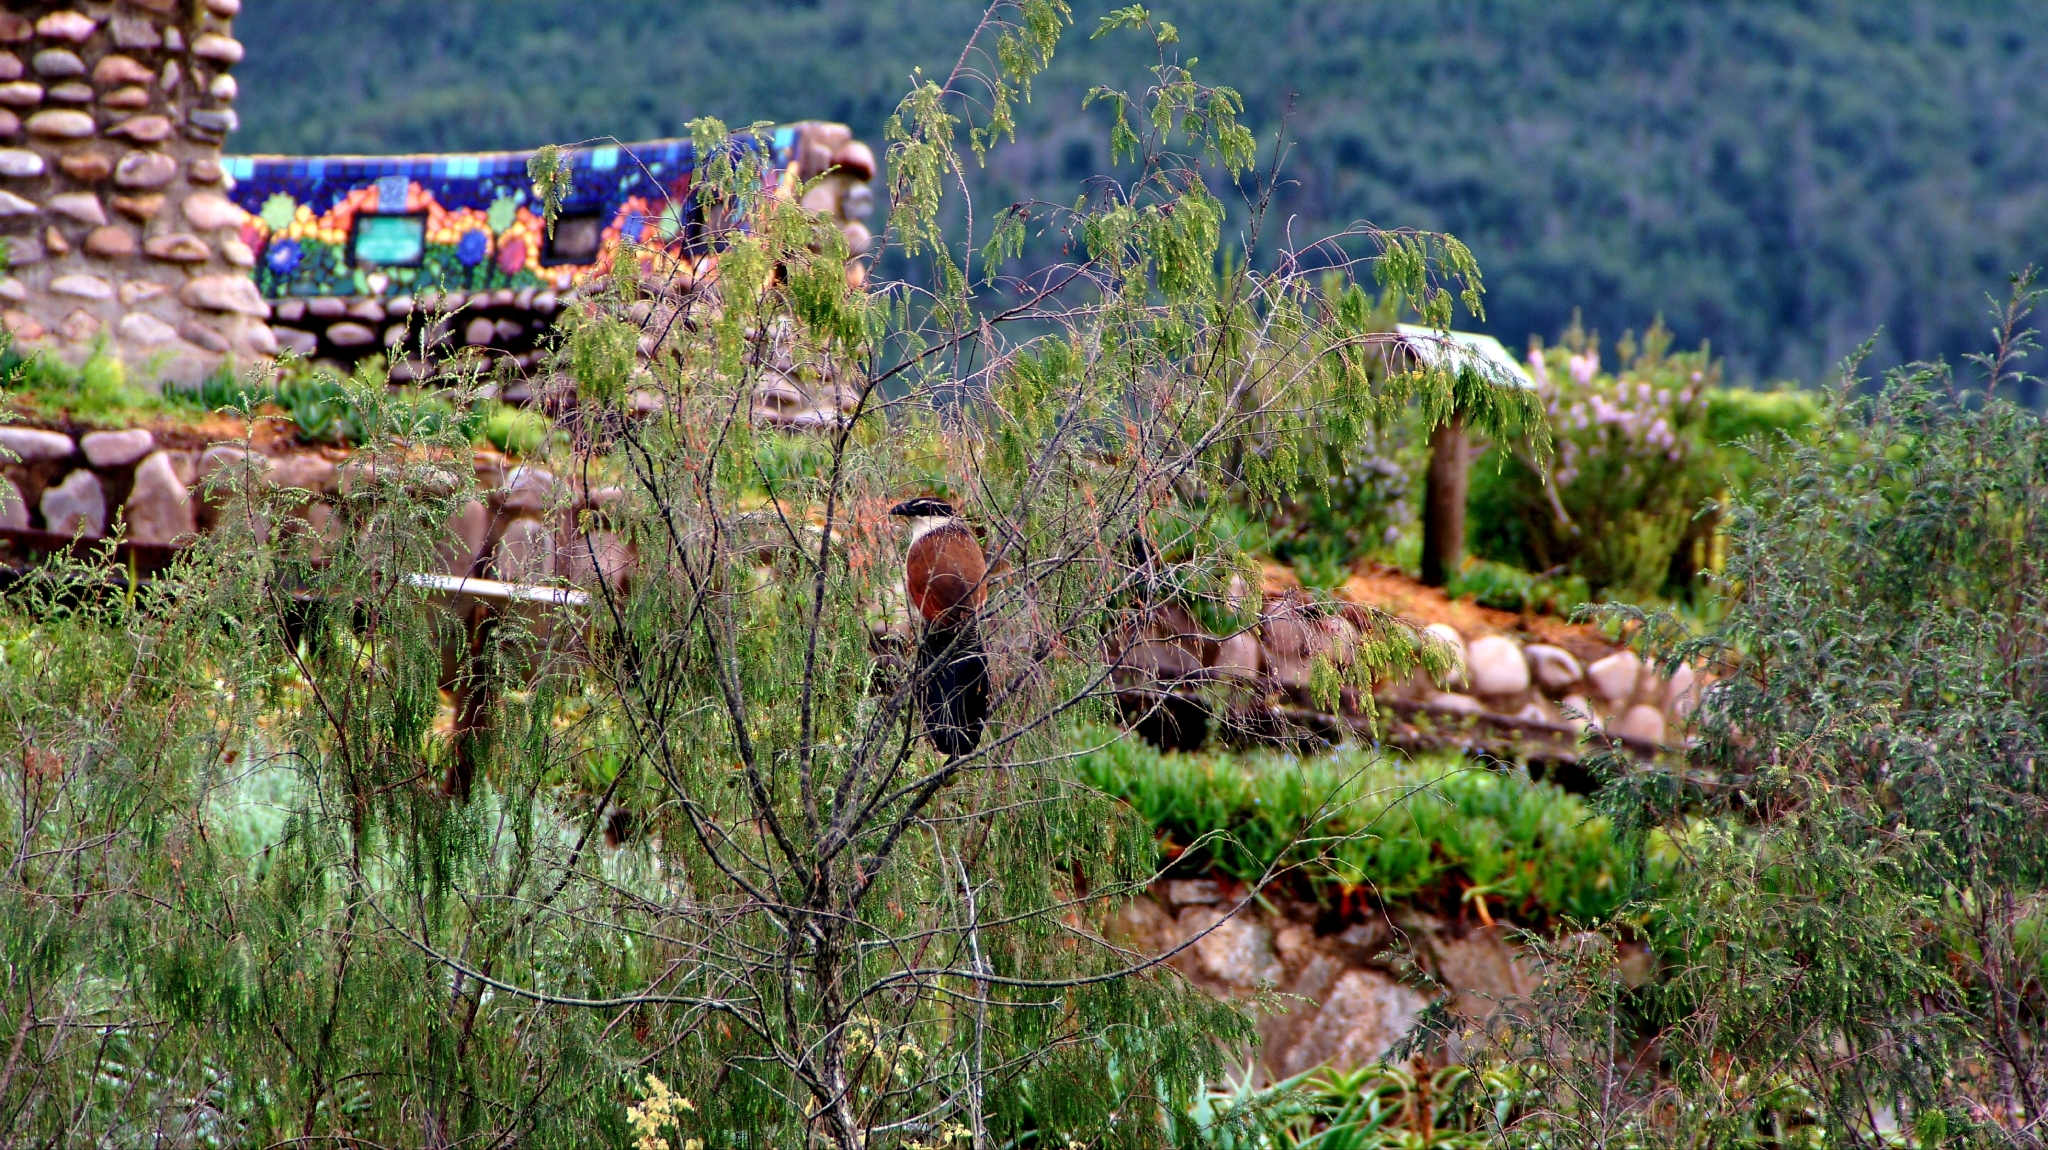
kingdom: Animalia
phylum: Chordata
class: Aves
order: Cuculiformes
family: Cuculidae
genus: Centropus
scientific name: Centropus superciliosus
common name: White-browed coucal
